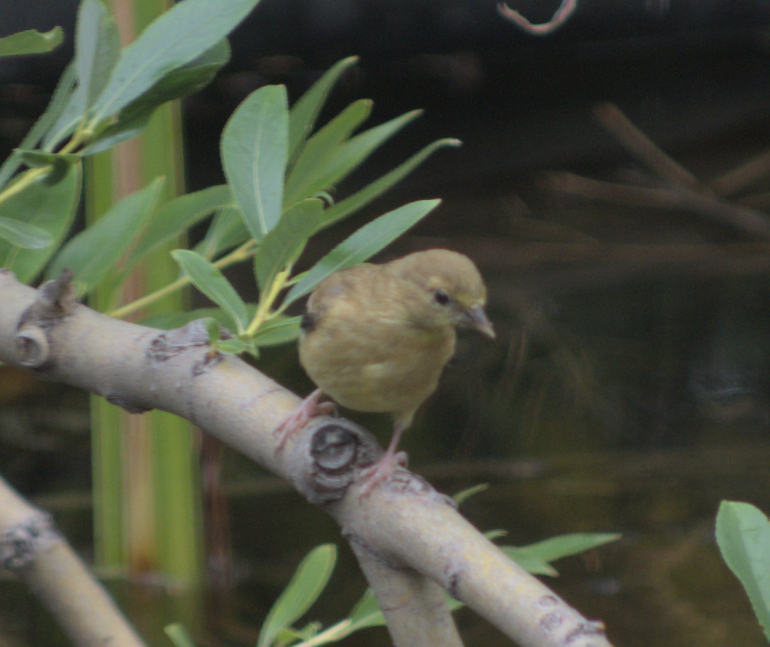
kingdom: Animalia
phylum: Chordata
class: Aves
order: Passeriformes
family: Fringillidae
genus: Spinus
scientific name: Spinus tristis
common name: American goldfinch
